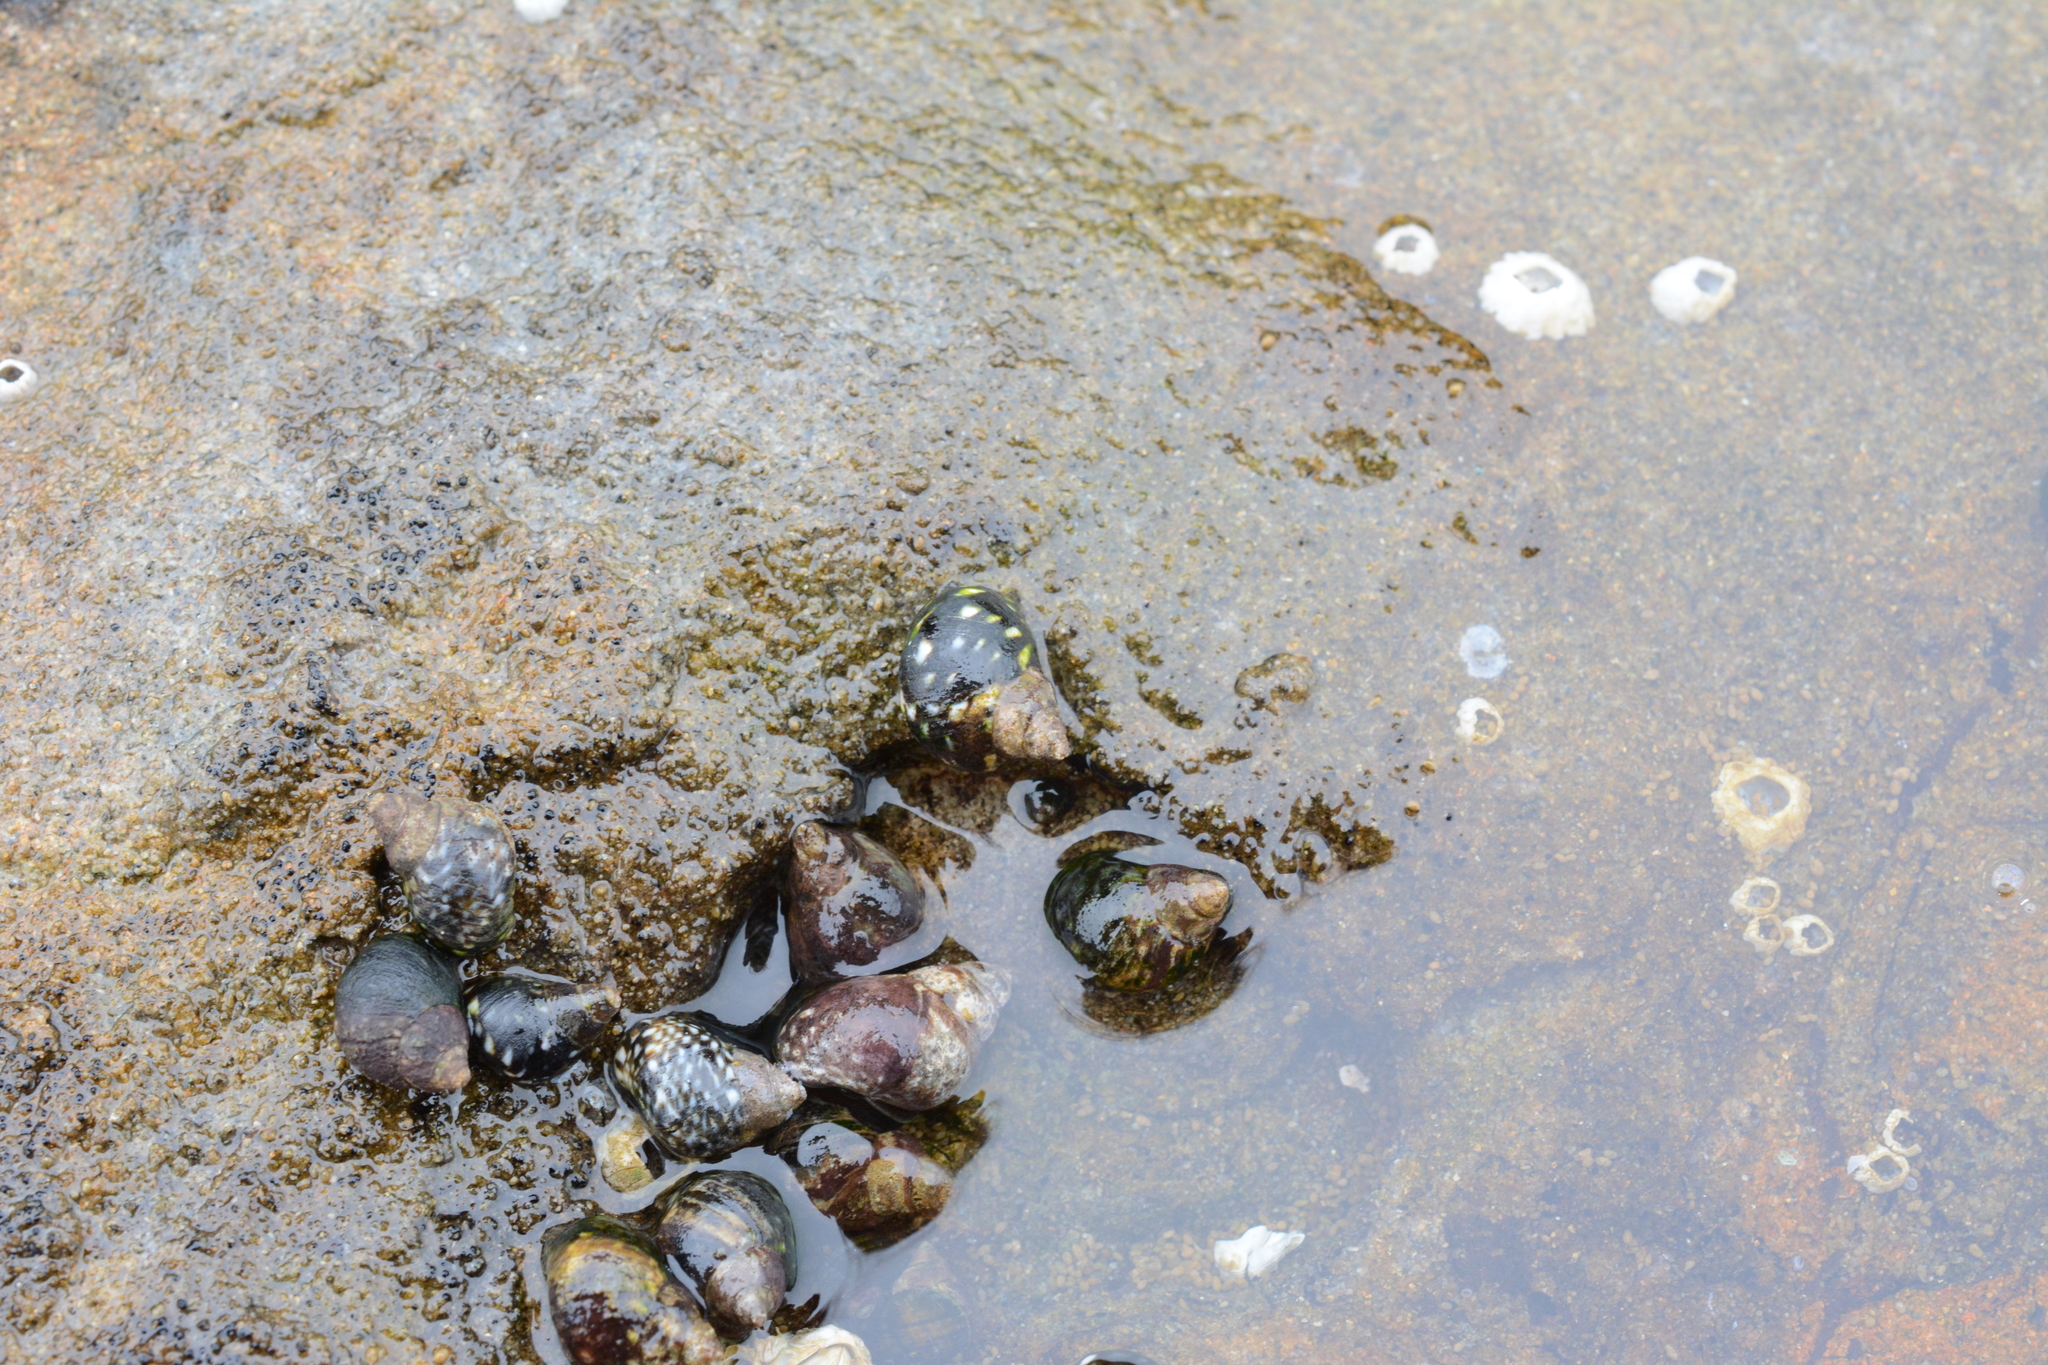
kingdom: Animalia
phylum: Mollusca
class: Gastropoda
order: Littorinimorpha
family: Littorinidae
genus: Littorina
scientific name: Littorina scutulata
